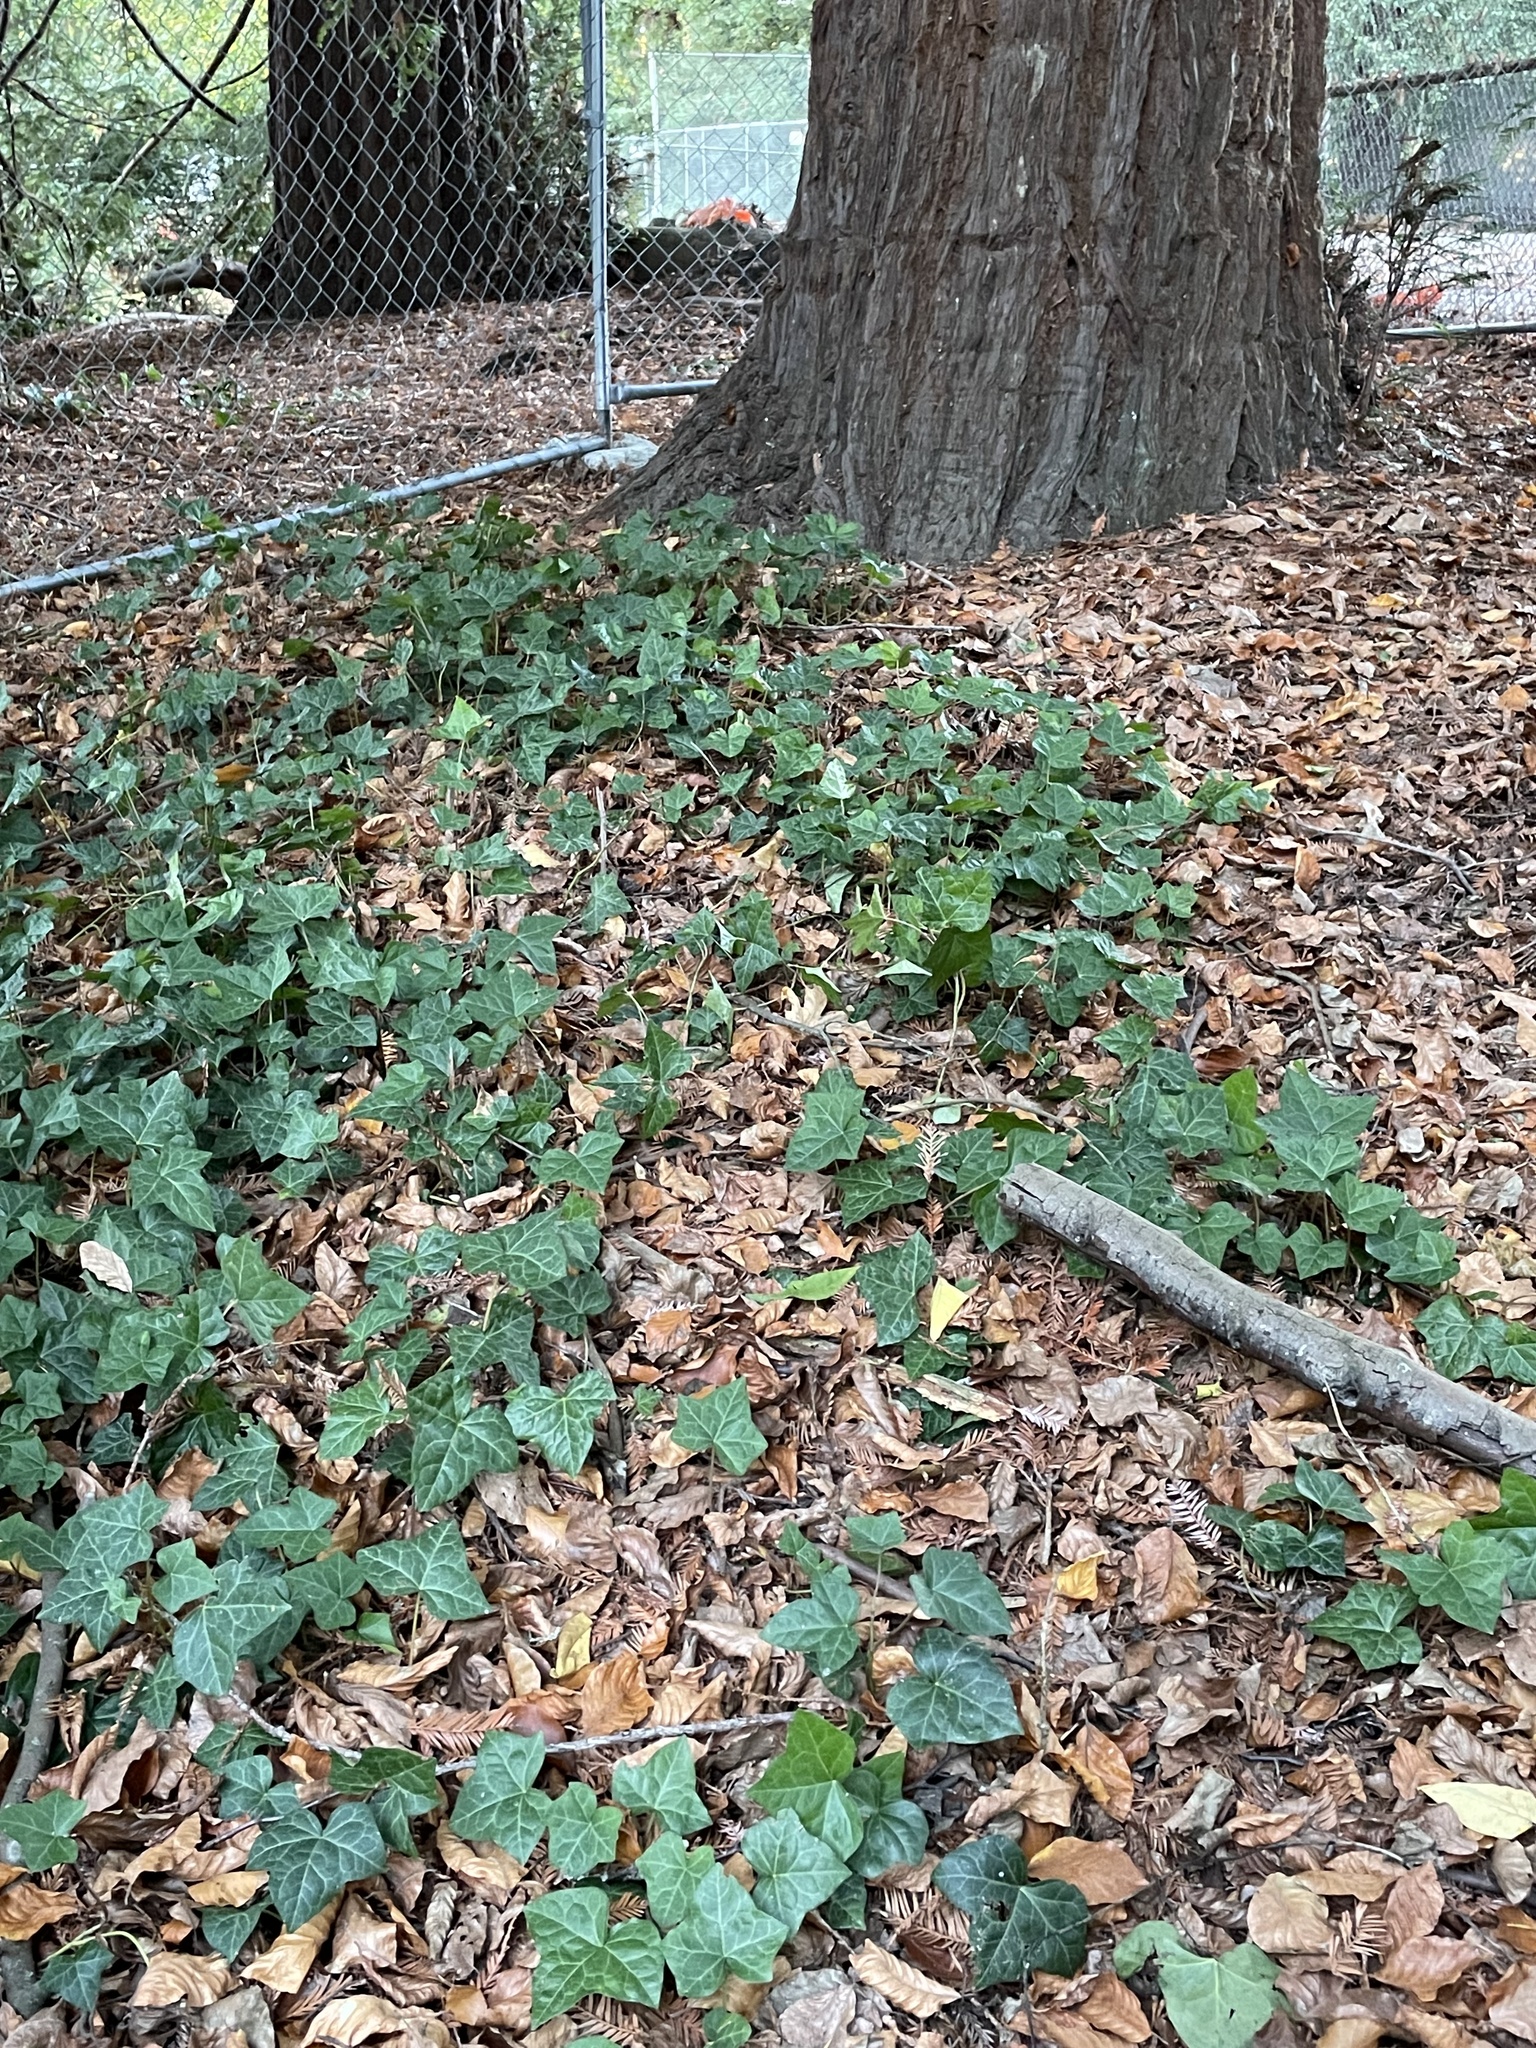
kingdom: Plantae
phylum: Tracheophyta
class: Magnoliopsida
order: Apiales
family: Araliaceae
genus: Hedera
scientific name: Hedera hibernica
